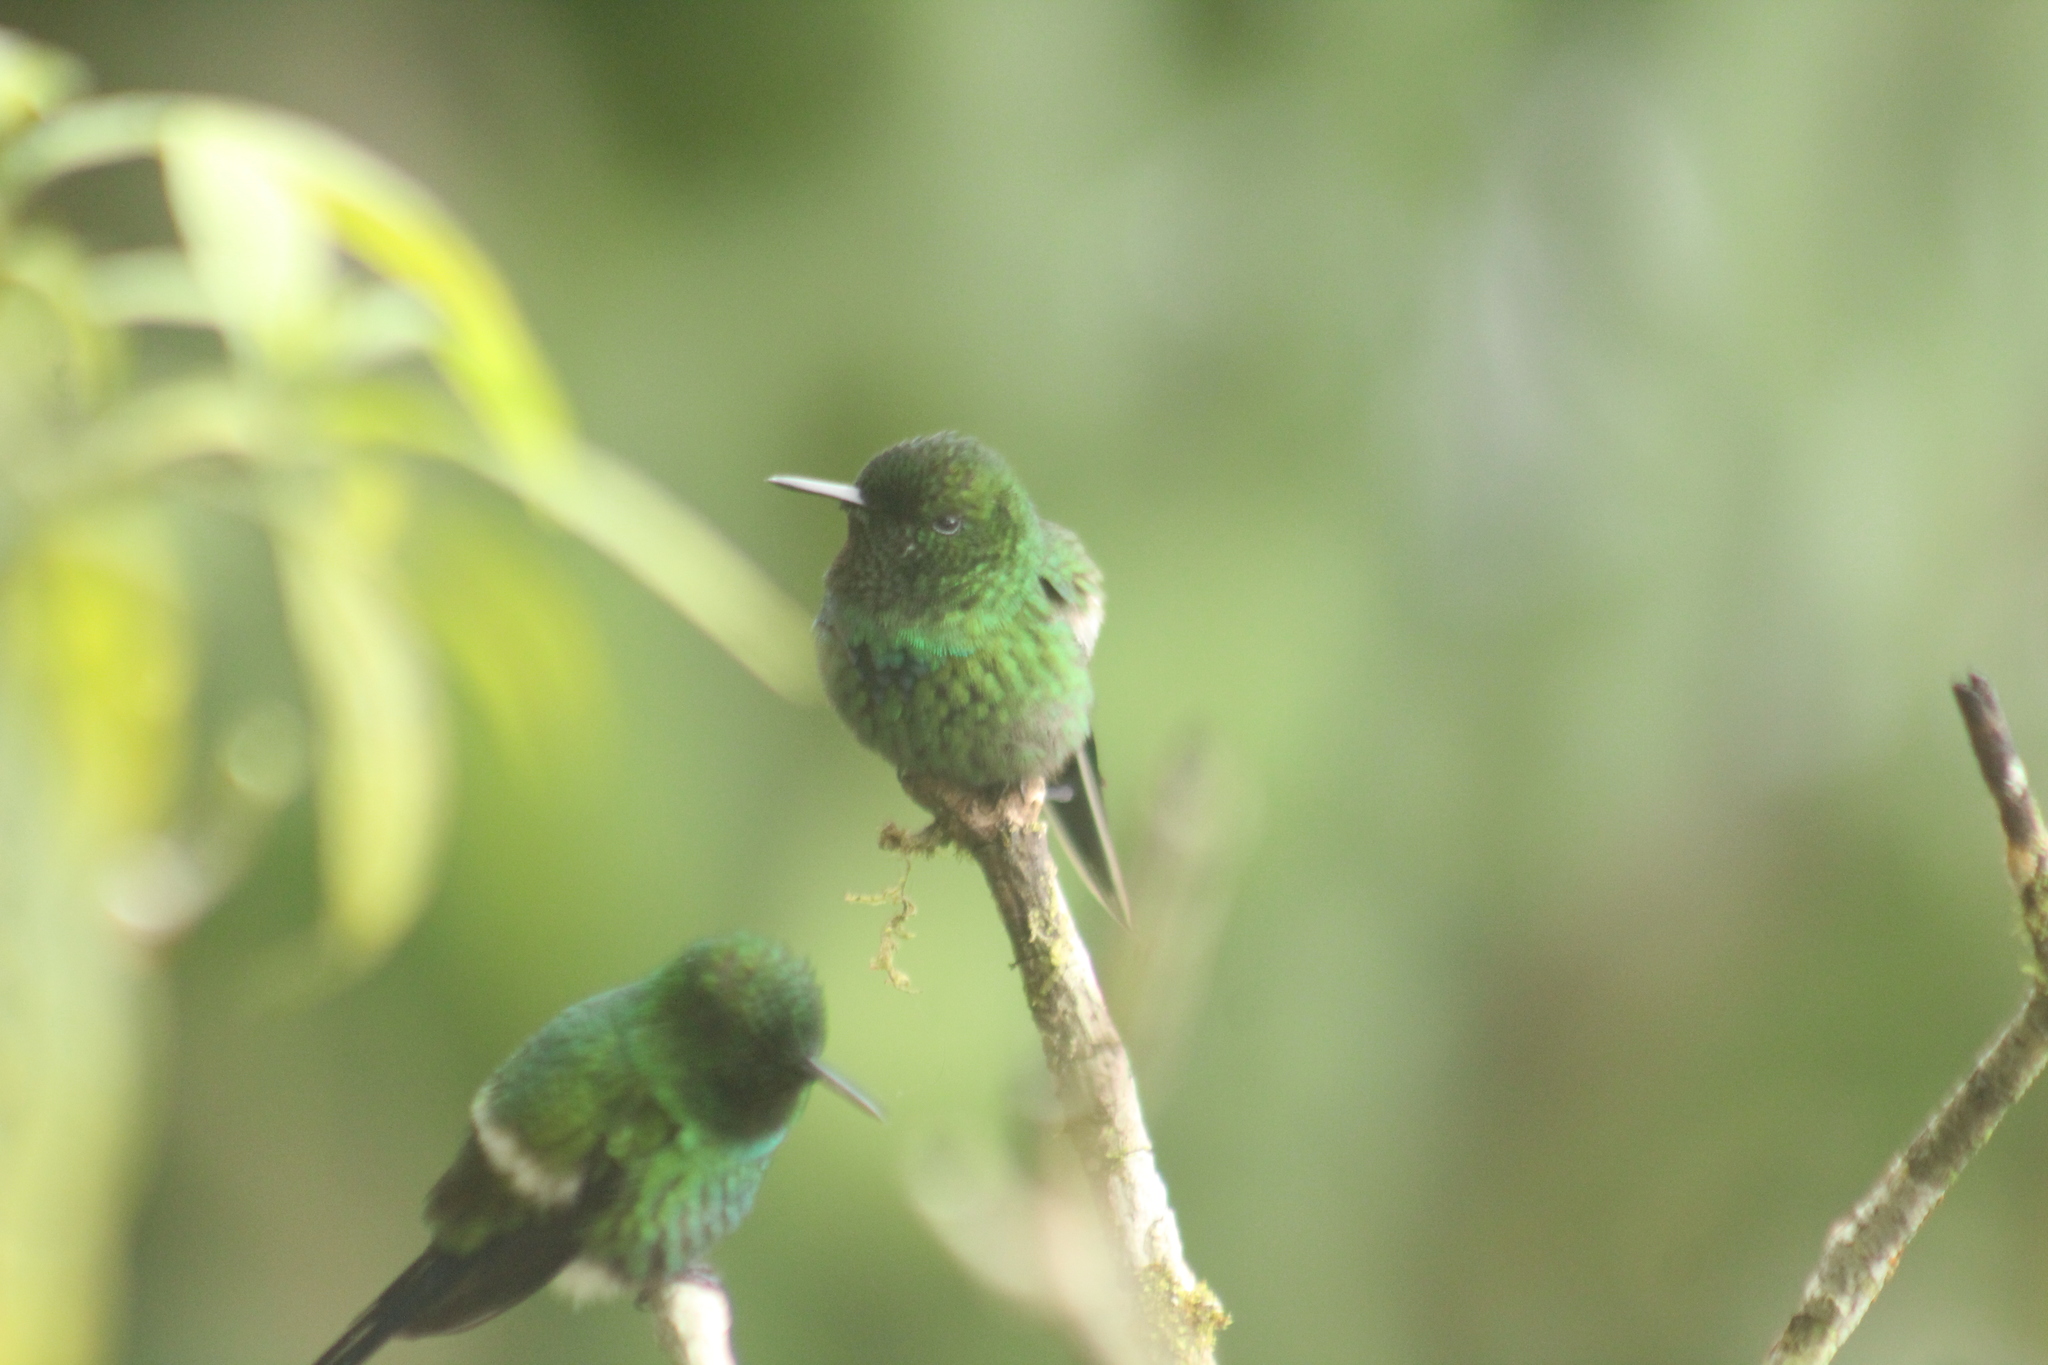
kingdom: Animalia
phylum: Chordata
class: Aves
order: Apodiformes
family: Trochilidae
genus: Discosura
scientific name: Discosura conversii
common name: Green thorntail
